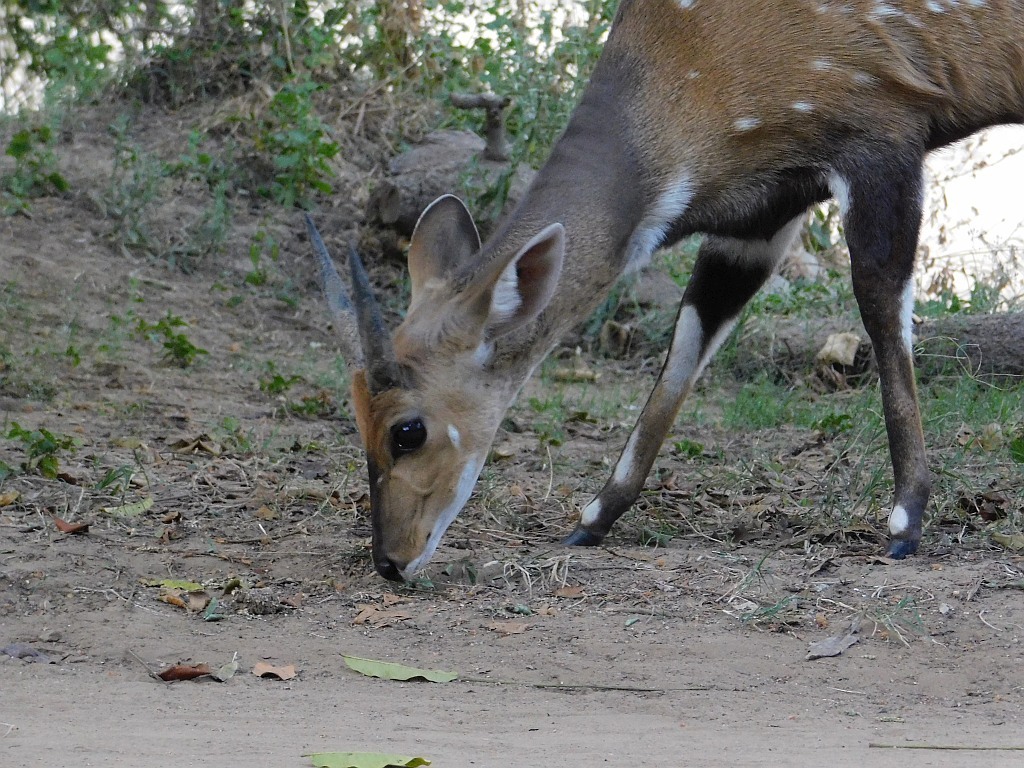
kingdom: Animalia
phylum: Chordata
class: Mammalia
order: Artiodactyla
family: Bovidae
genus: Tragelaphus
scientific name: Tragelaphus scriptus
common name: Bushbuck
